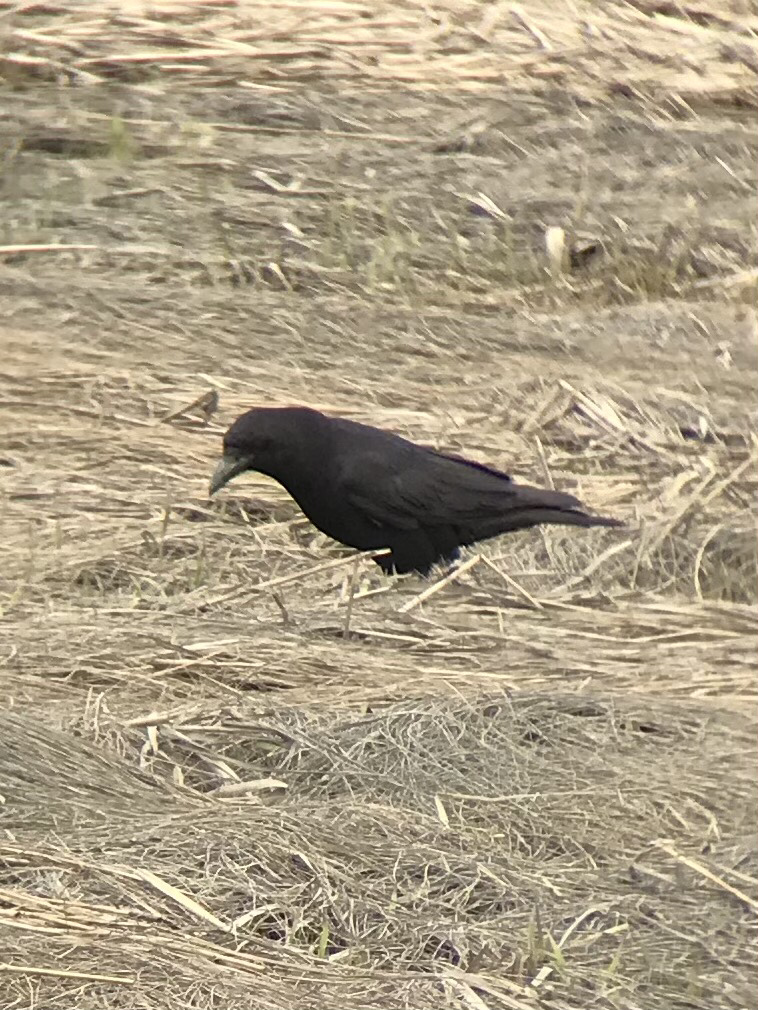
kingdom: Animalia
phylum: Chordata
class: Aves
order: Passeriformes
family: Corvidae
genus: Corvus
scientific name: Corvus brachyrhynchos
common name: American crow
